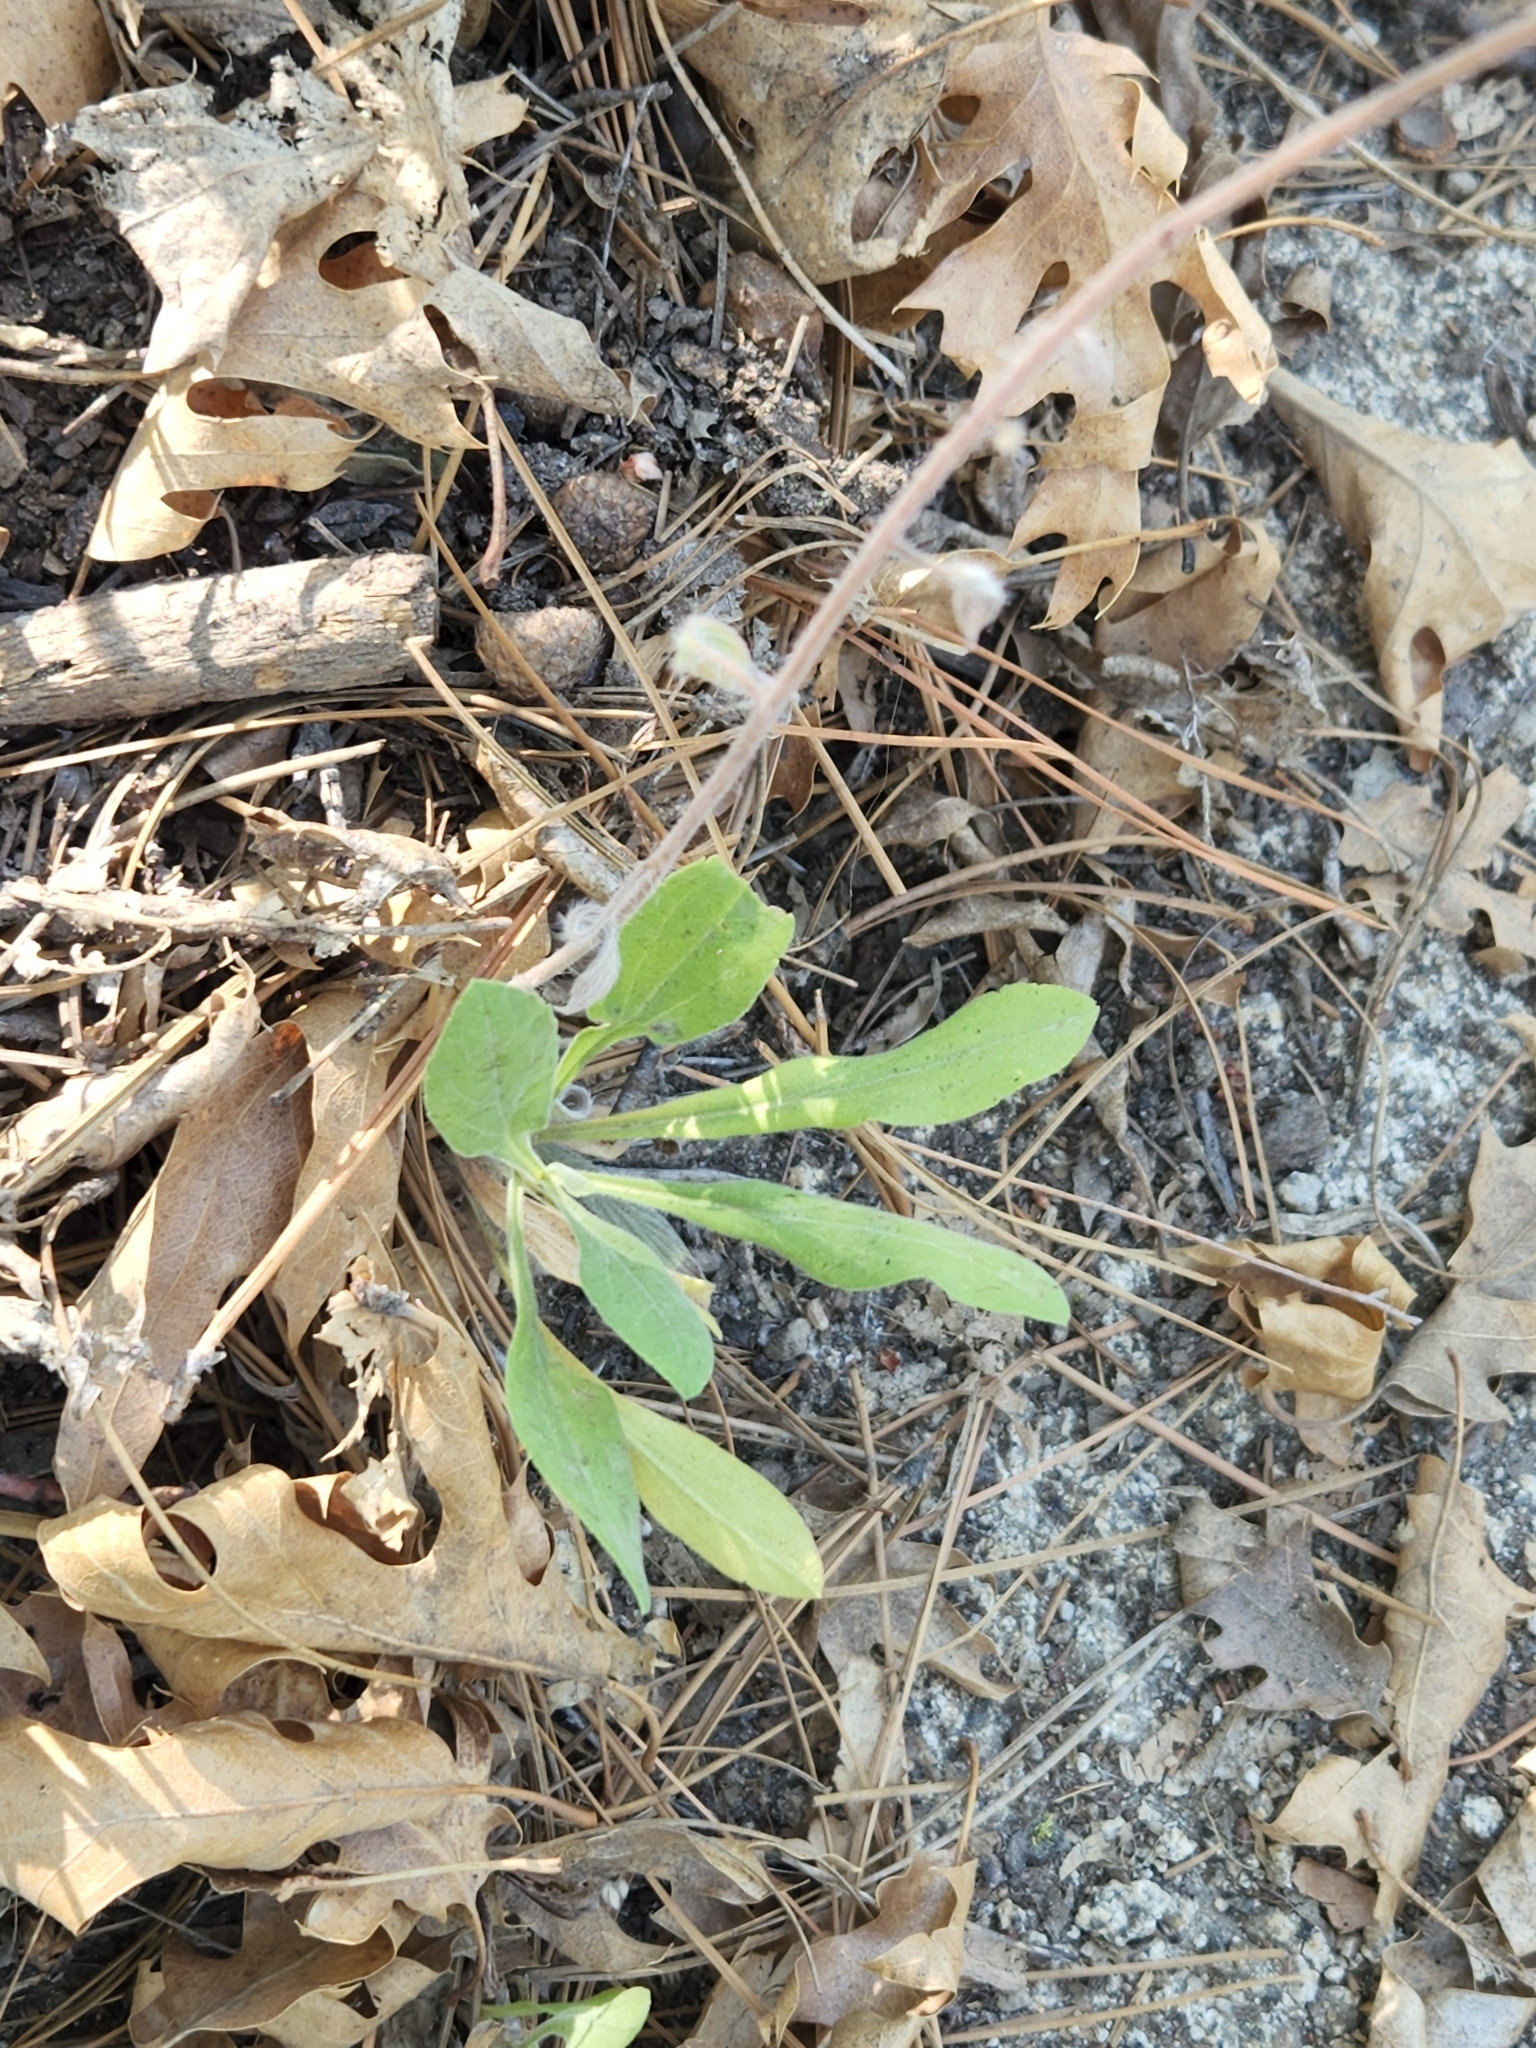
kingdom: Plantae
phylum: Tracheophyta
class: Magnoliopsida
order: Boraginales
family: Hydrophyllaceae
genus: Phacelia
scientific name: Phacelia imbricata
